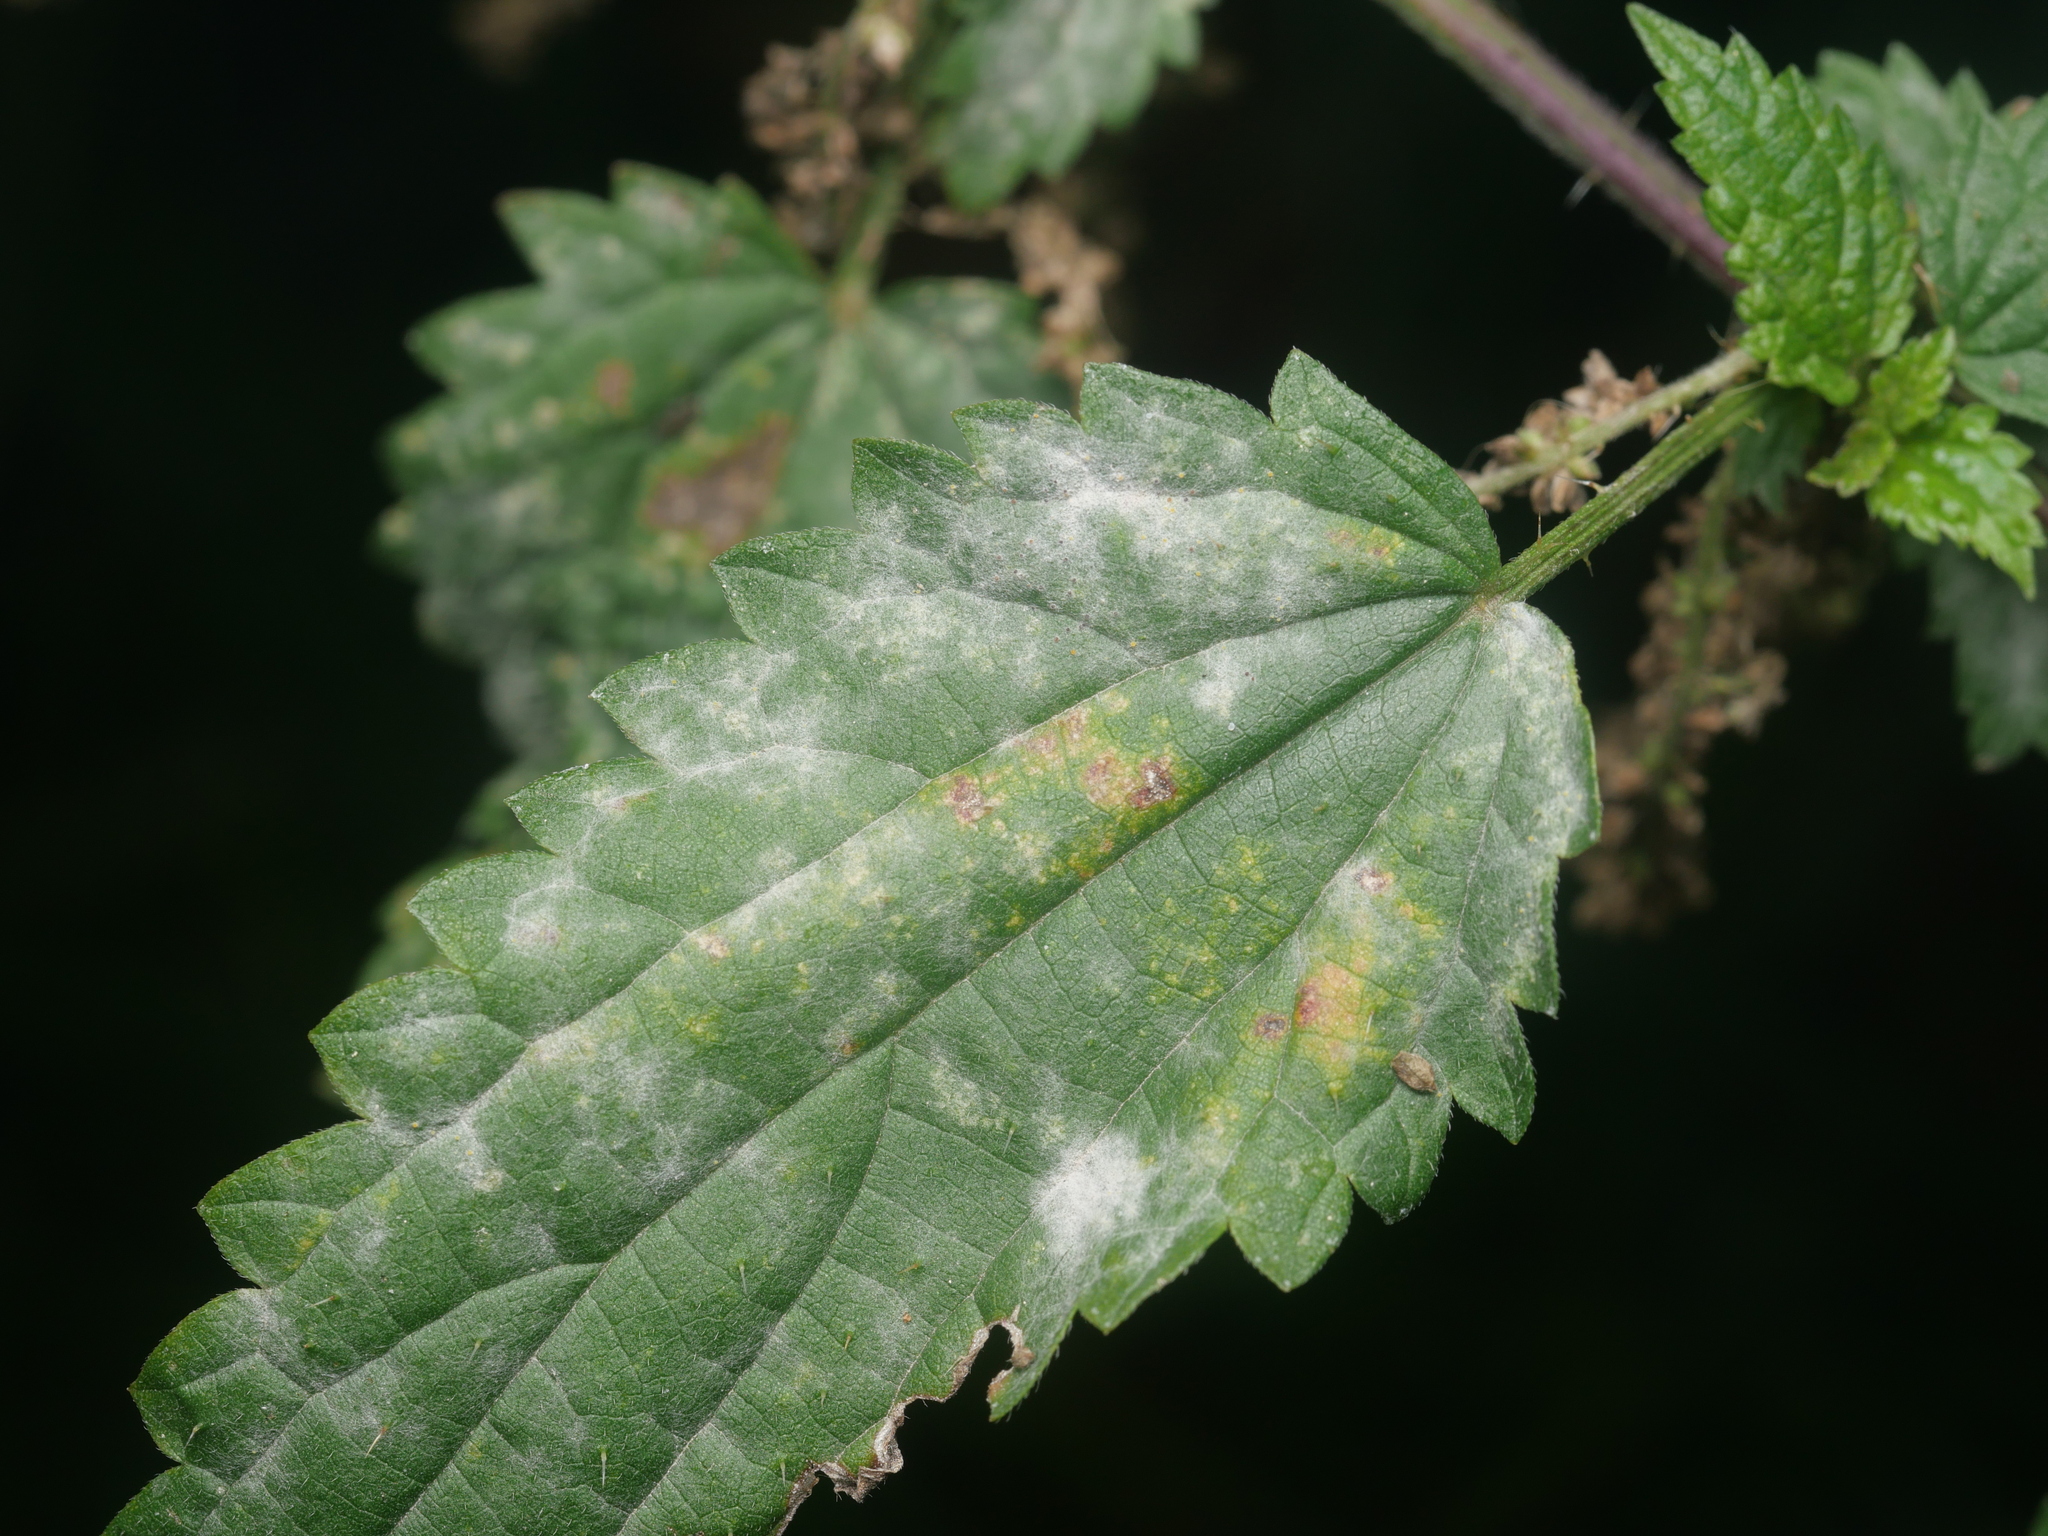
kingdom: Fungi
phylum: Ascomycota
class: Leotiomycetes
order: Helotiales
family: Erysiphaceae
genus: Erysiphe
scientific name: Erysiphe urticae
